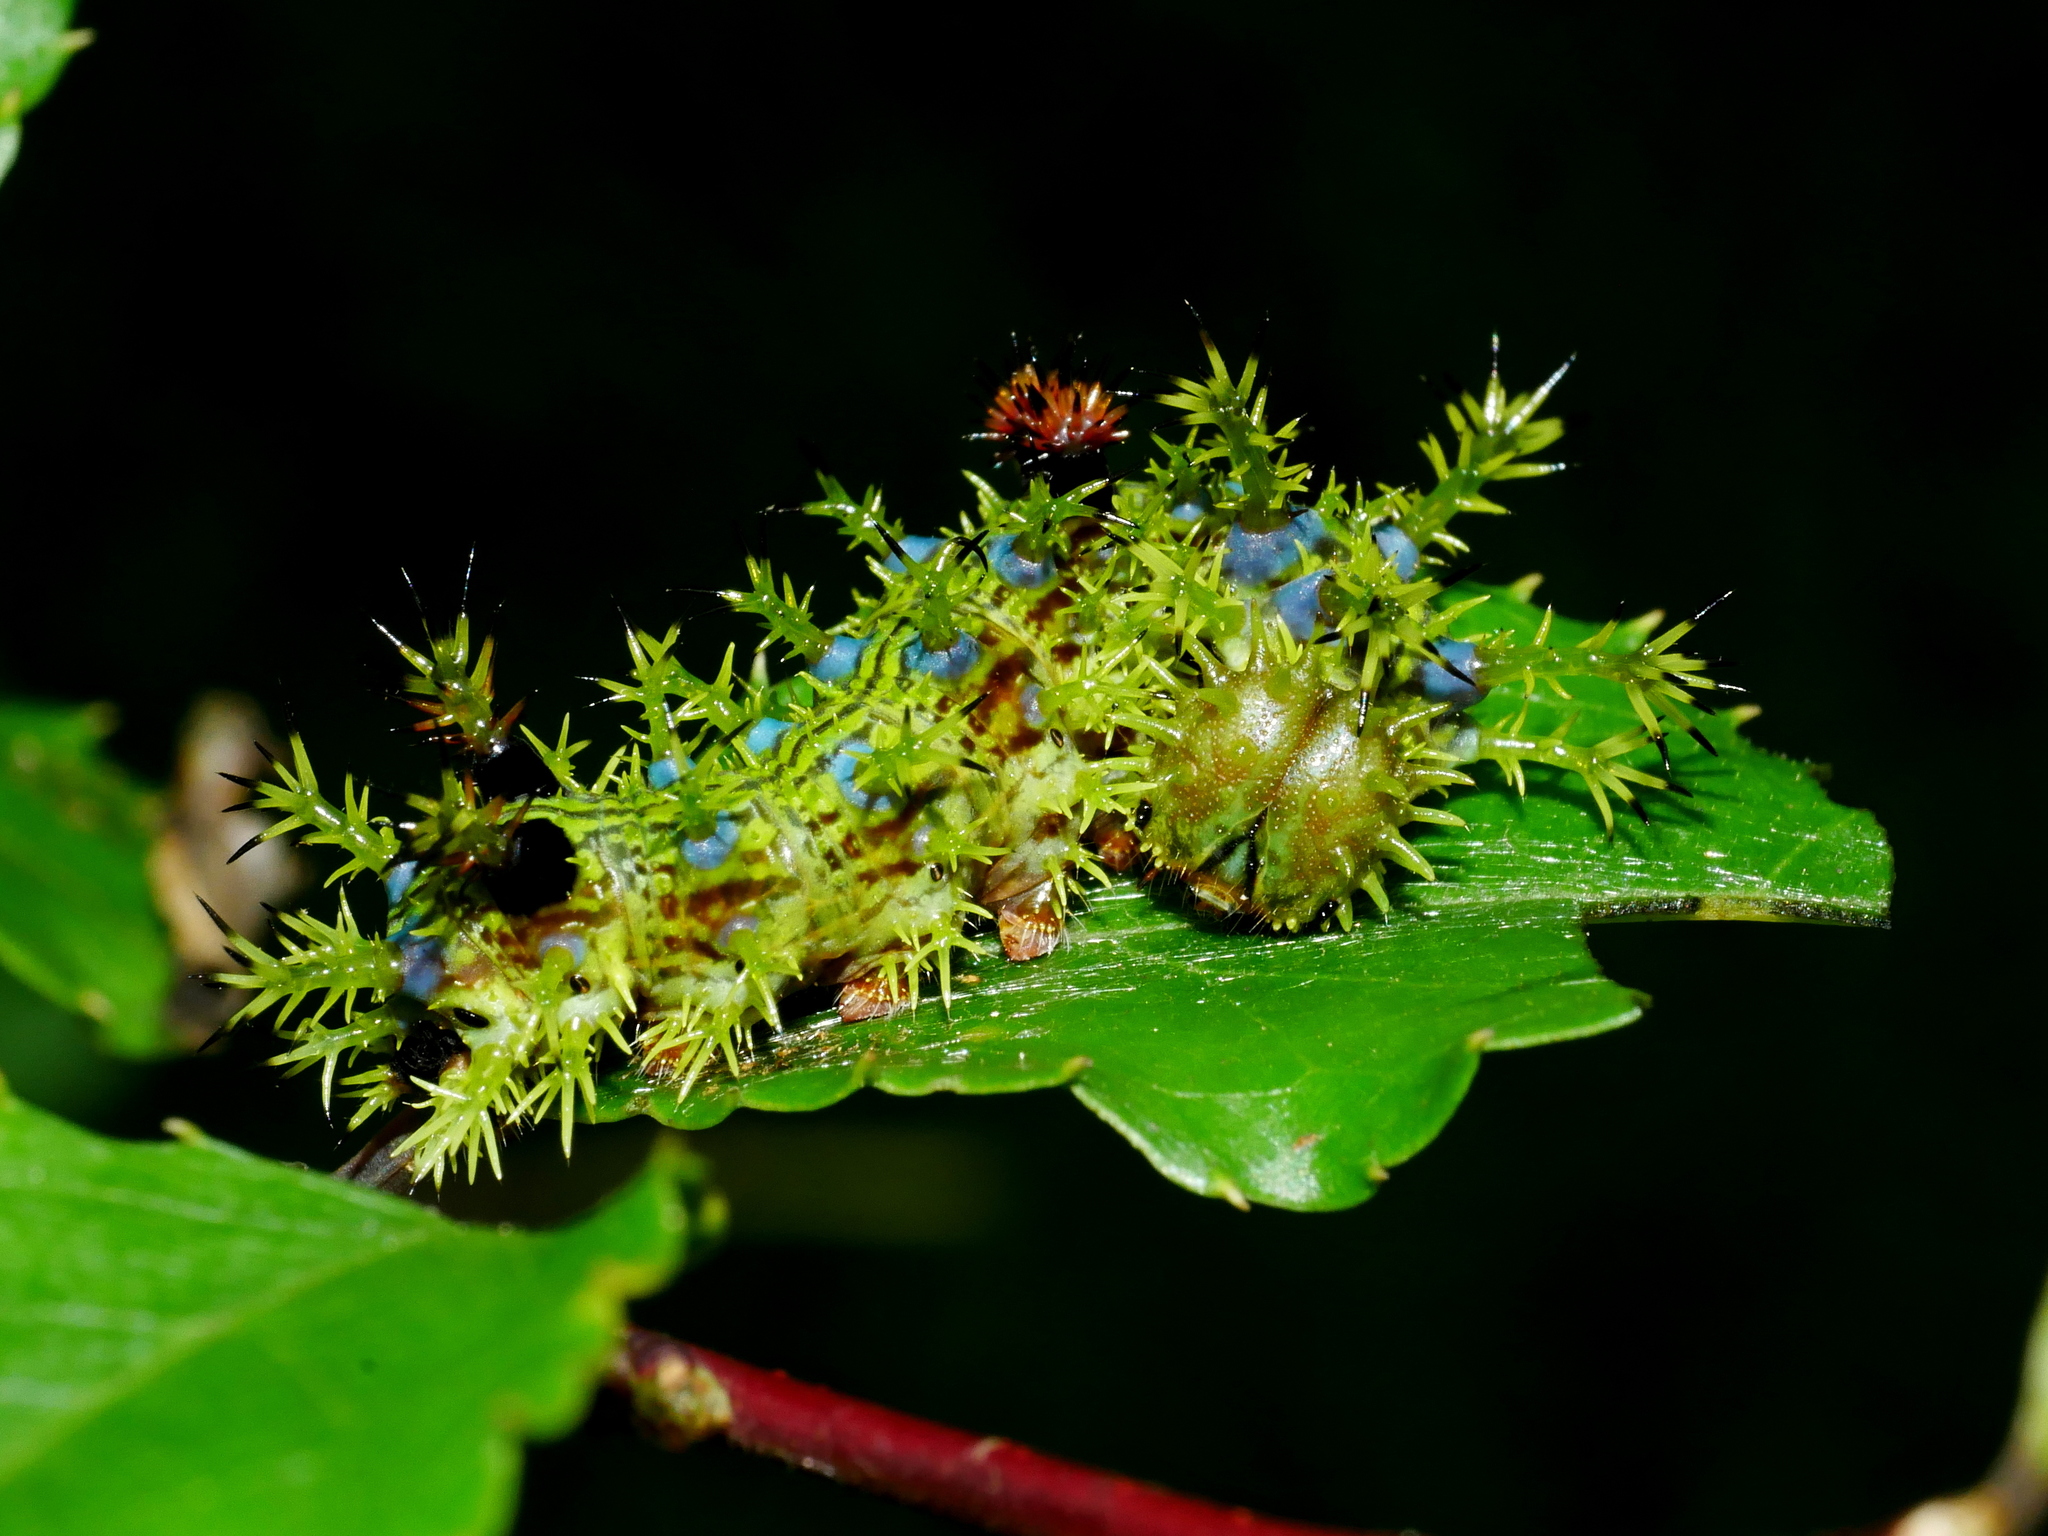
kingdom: Animalia
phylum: Arthropoda
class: Insecta
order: Lepidoptera
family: Nymphalidae
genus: Limenitis
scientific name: Limenitis asura
